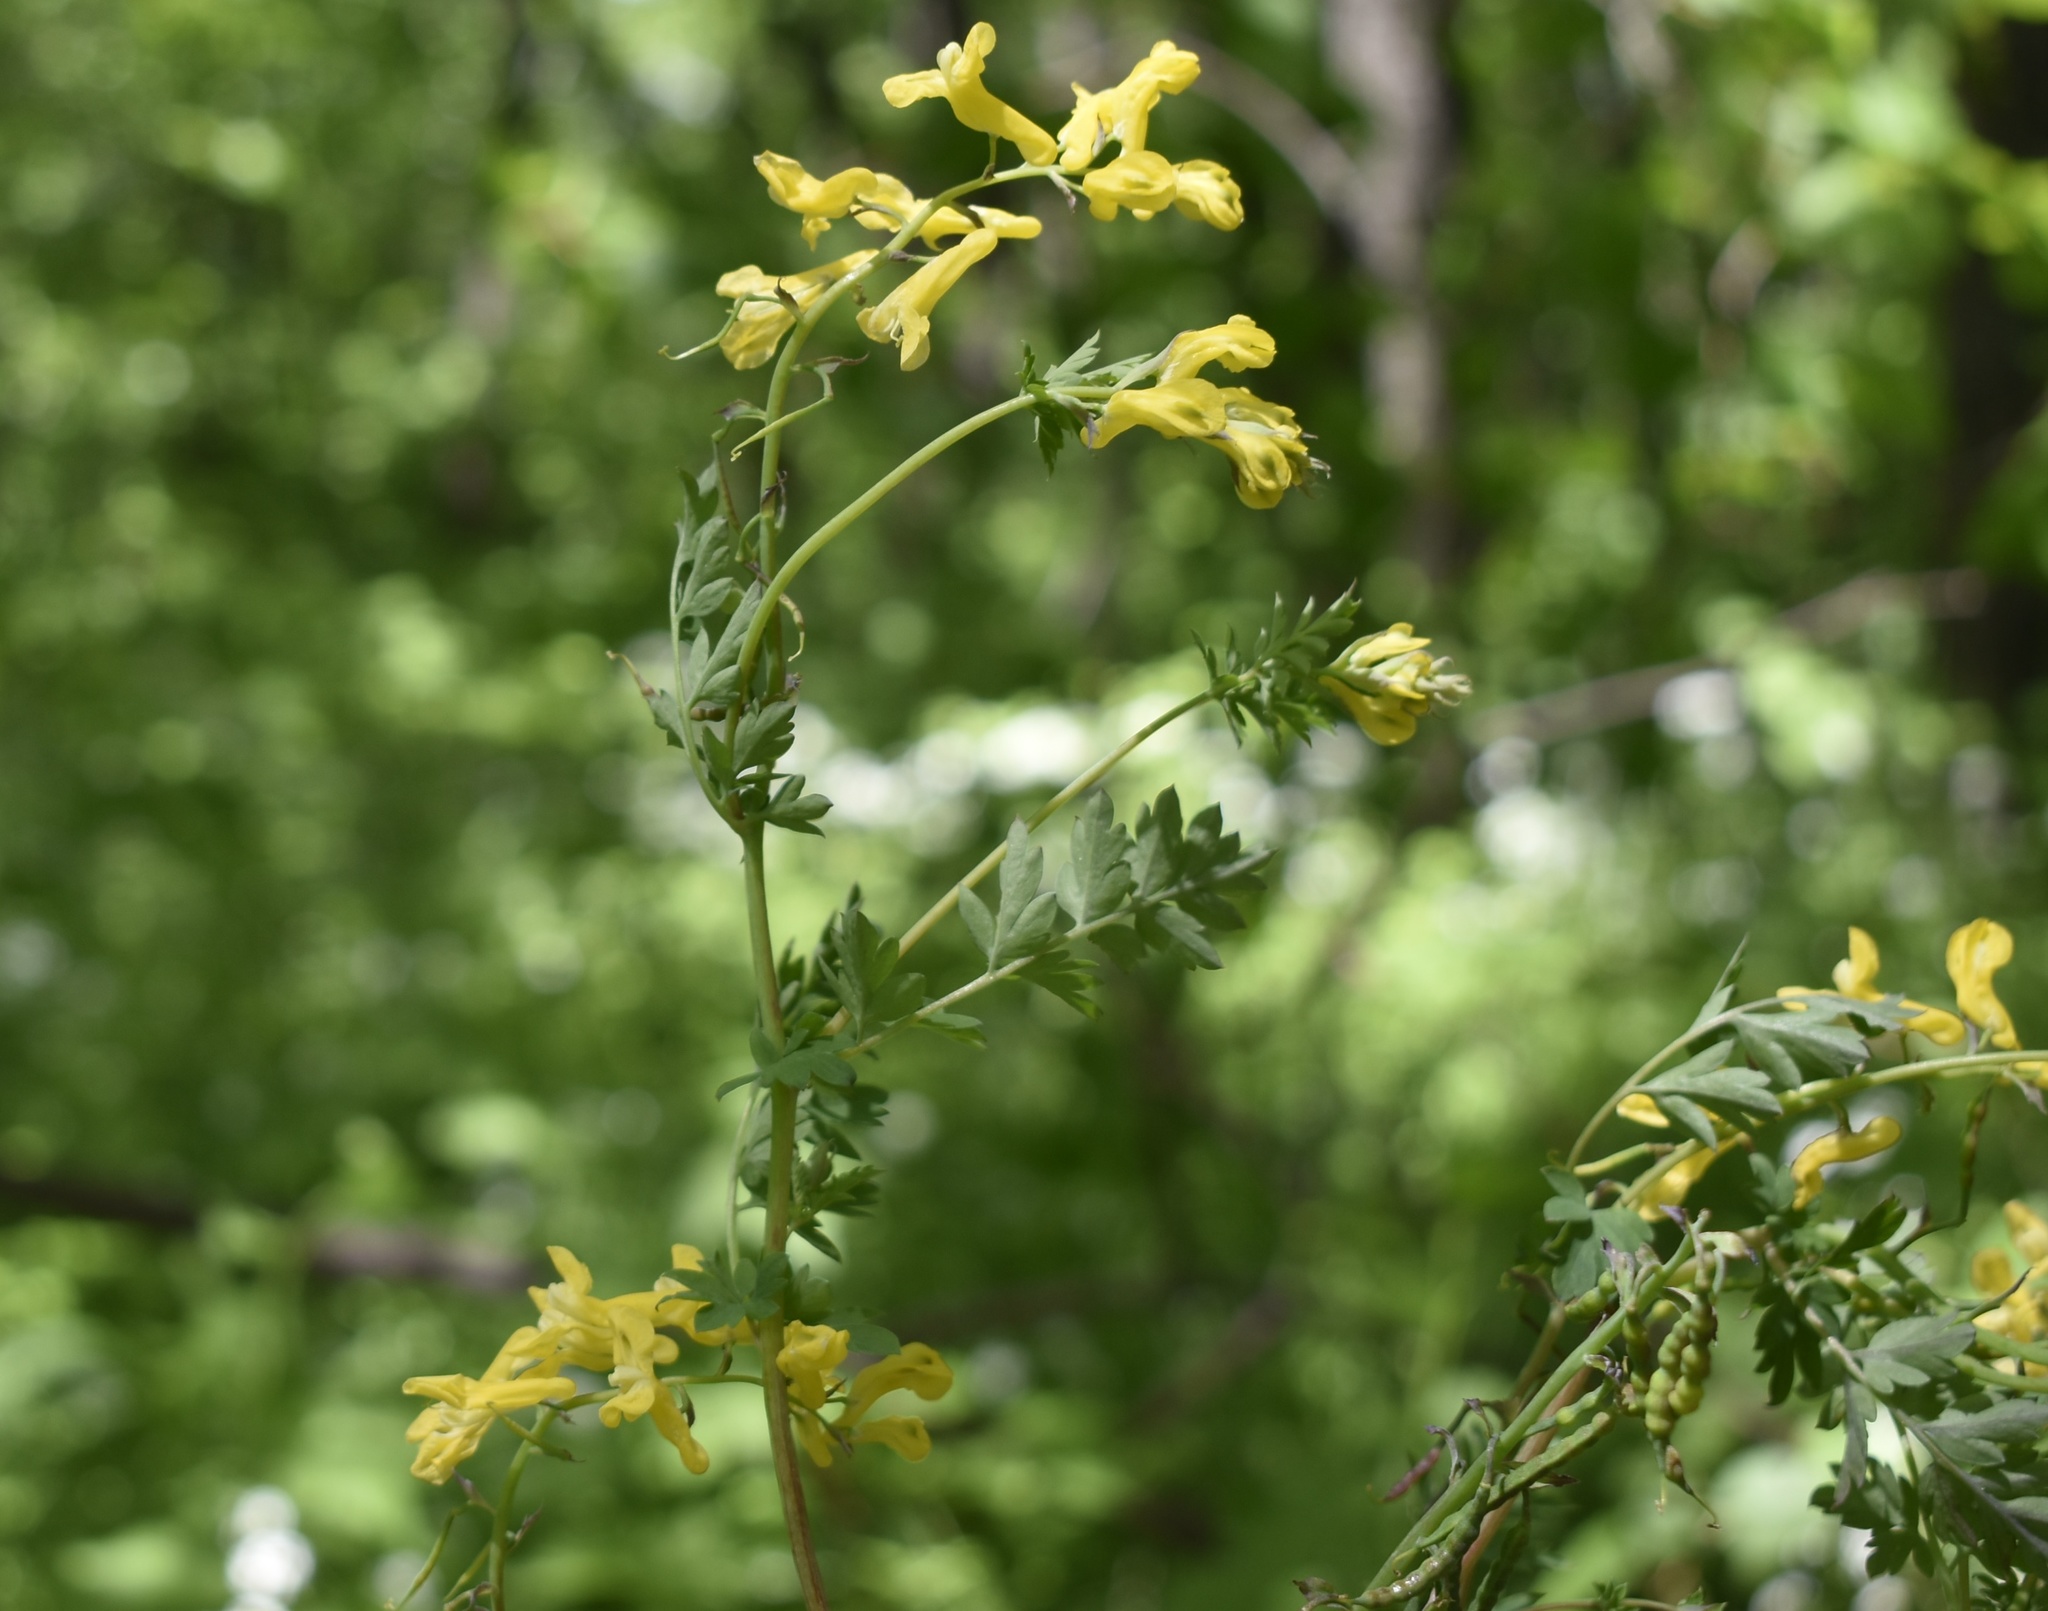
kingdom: Plantae
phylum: Tracheophyta
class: Magnoliopsida
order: Ranunculales
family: Papaveraceae
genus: Corydalis
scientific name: Corydalis speciosa
